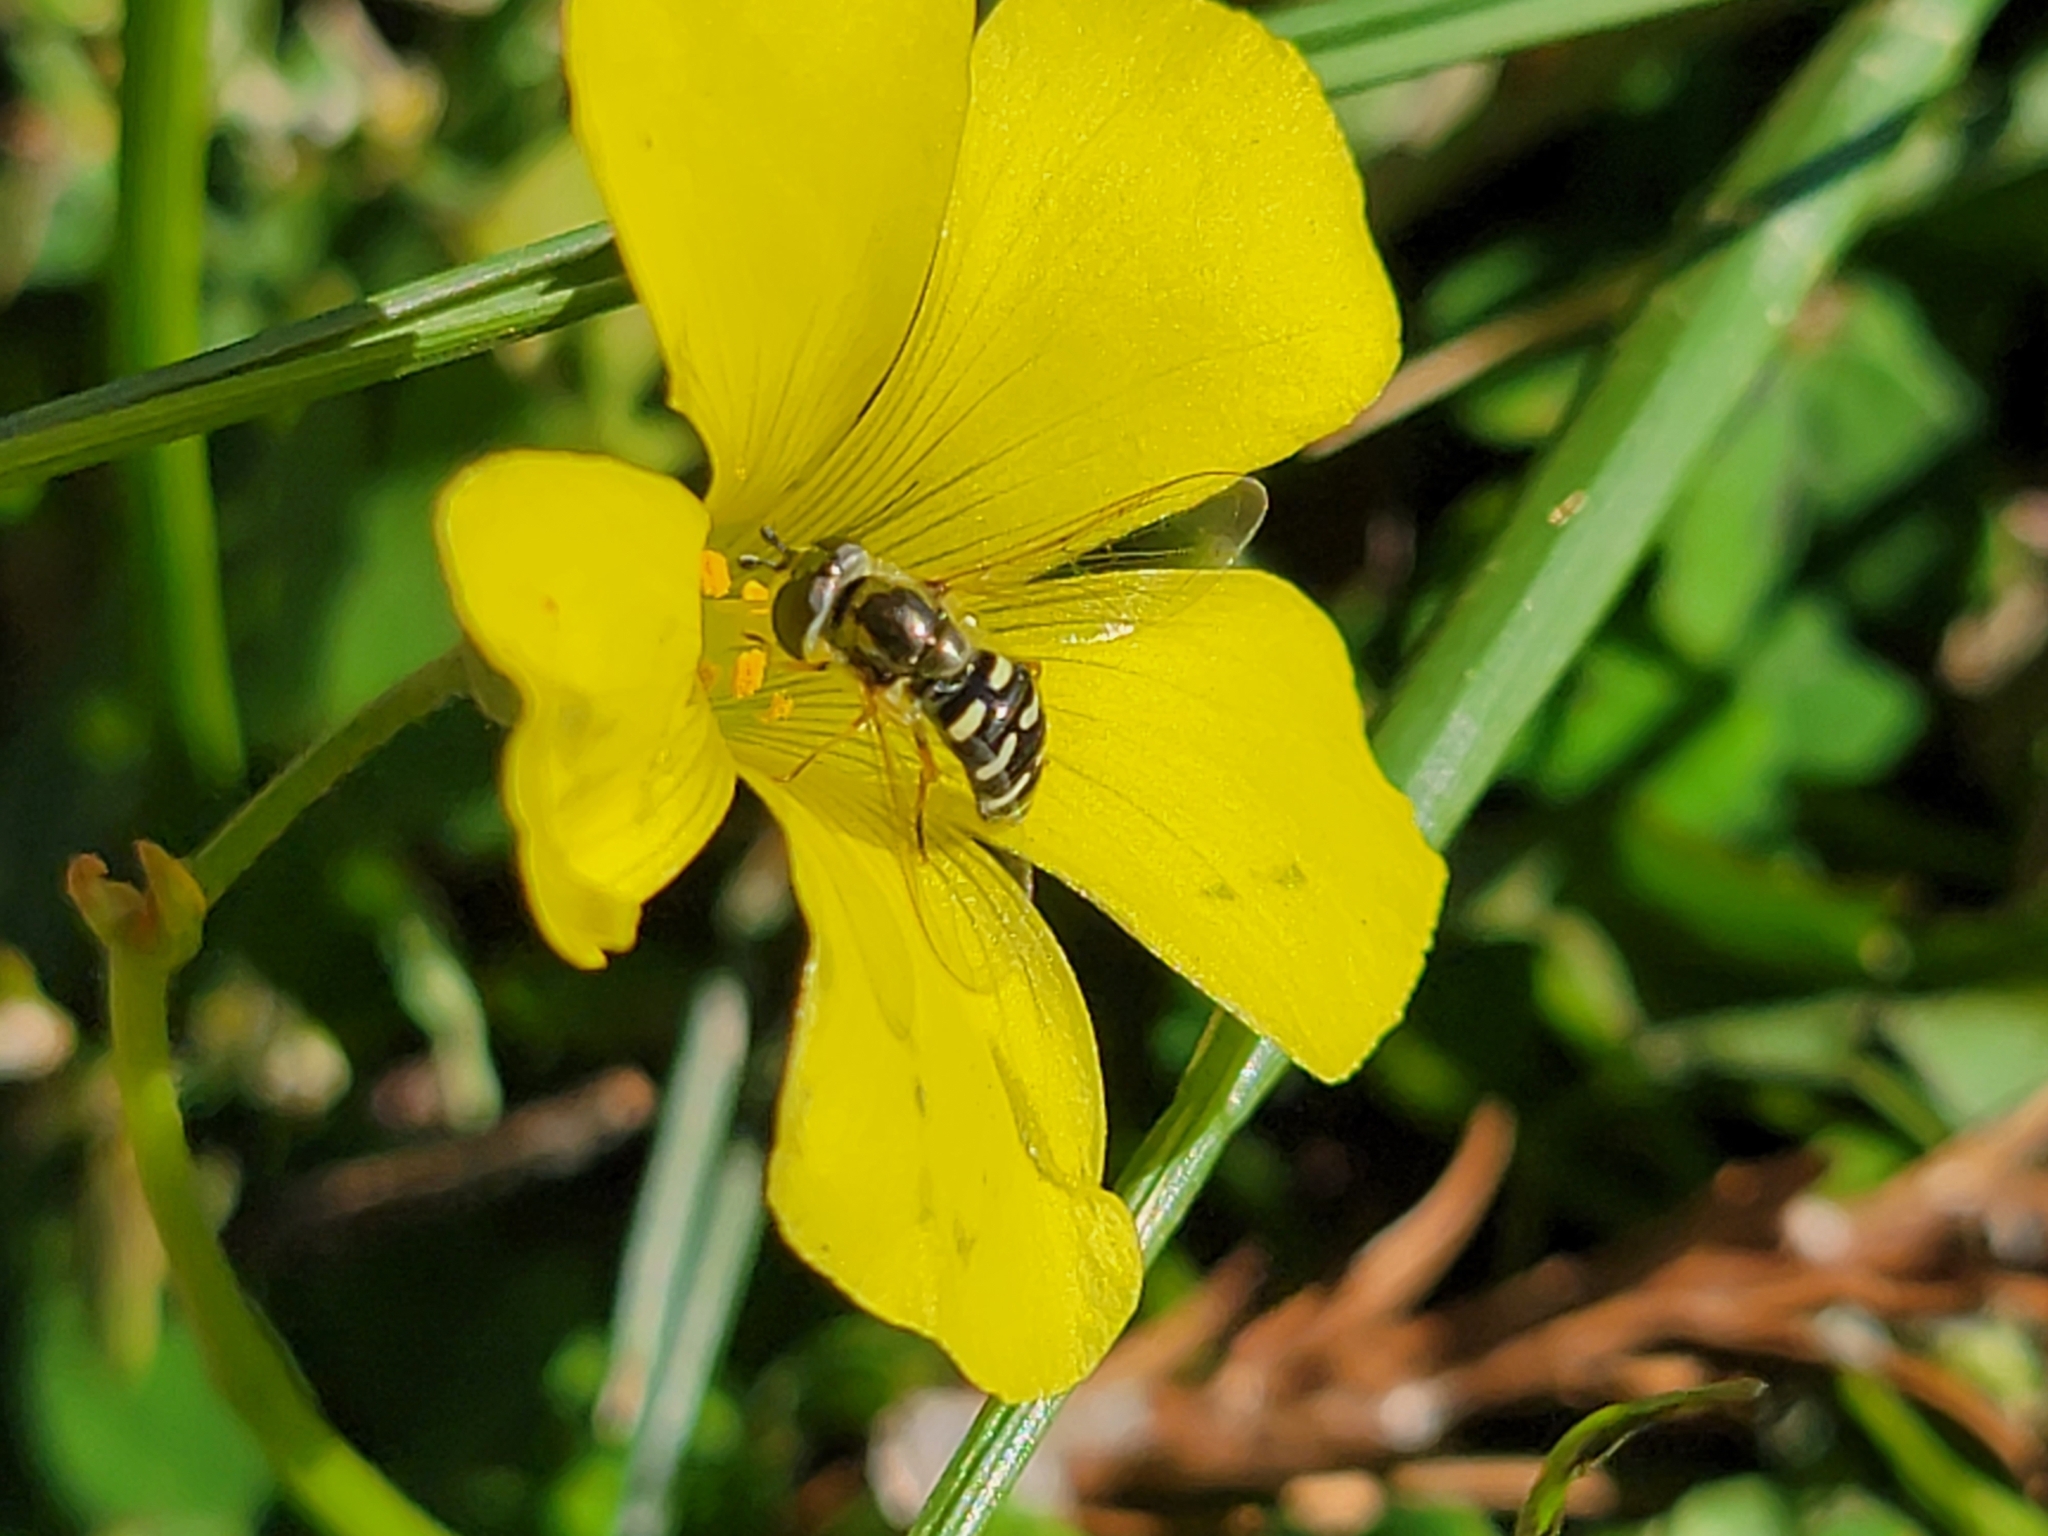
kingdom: Animalia
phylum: Arthropoda
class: Insecta
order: Diptera
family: Syrphidae
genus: Eupeodes
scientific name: Eupeodes volucris
